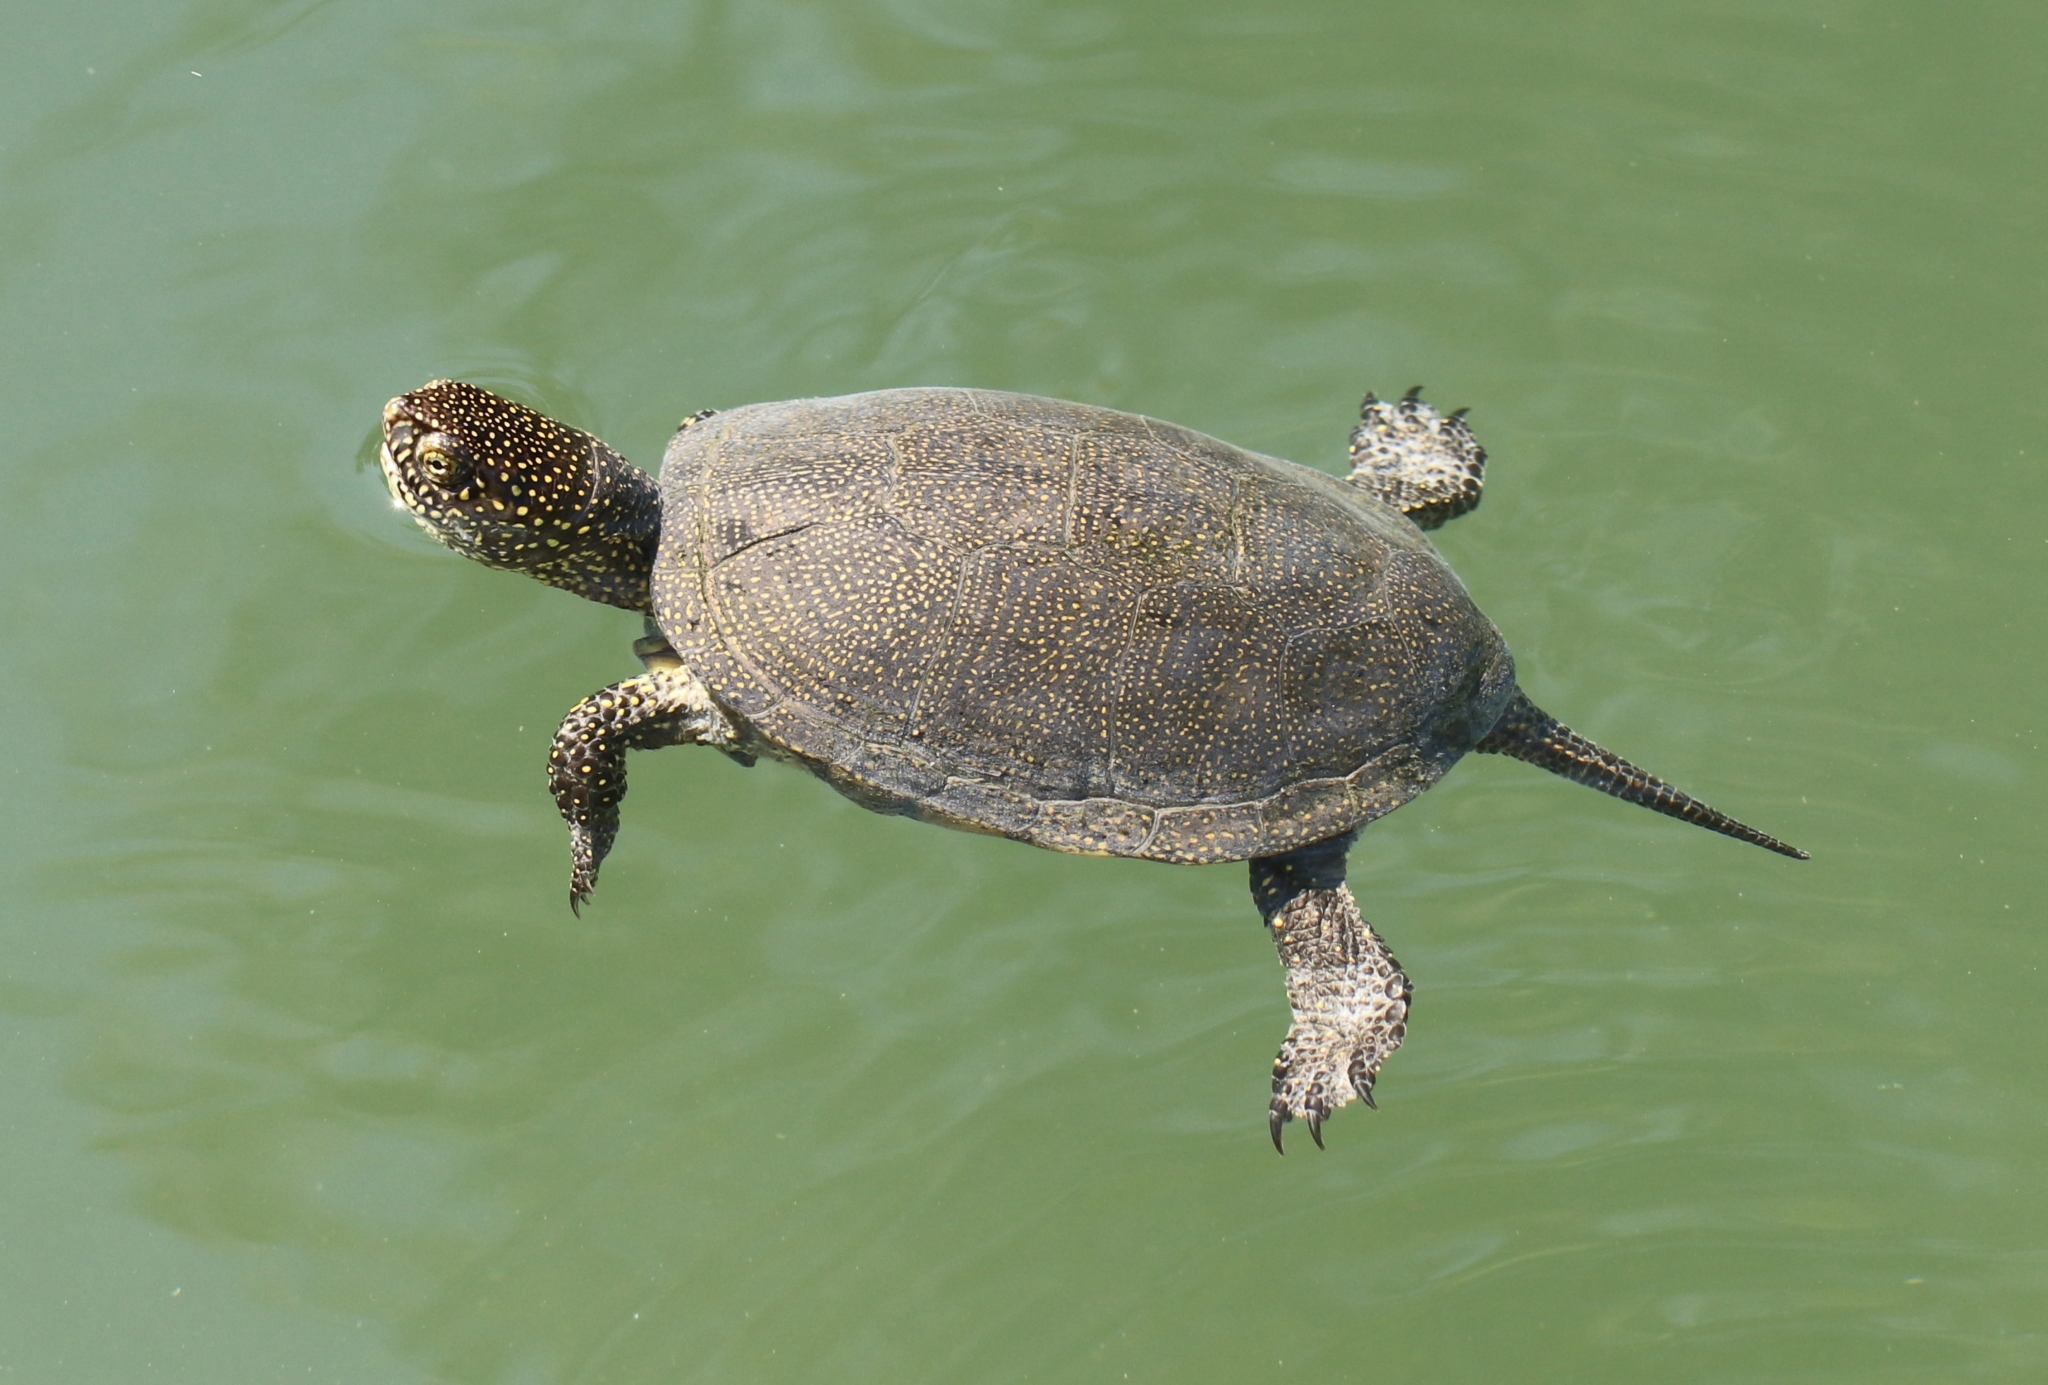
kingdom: Animalia
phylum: Chordata
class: Testudines
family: Emydidae
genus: Emys
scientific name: Emys orbicularis
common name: European pond turtle
